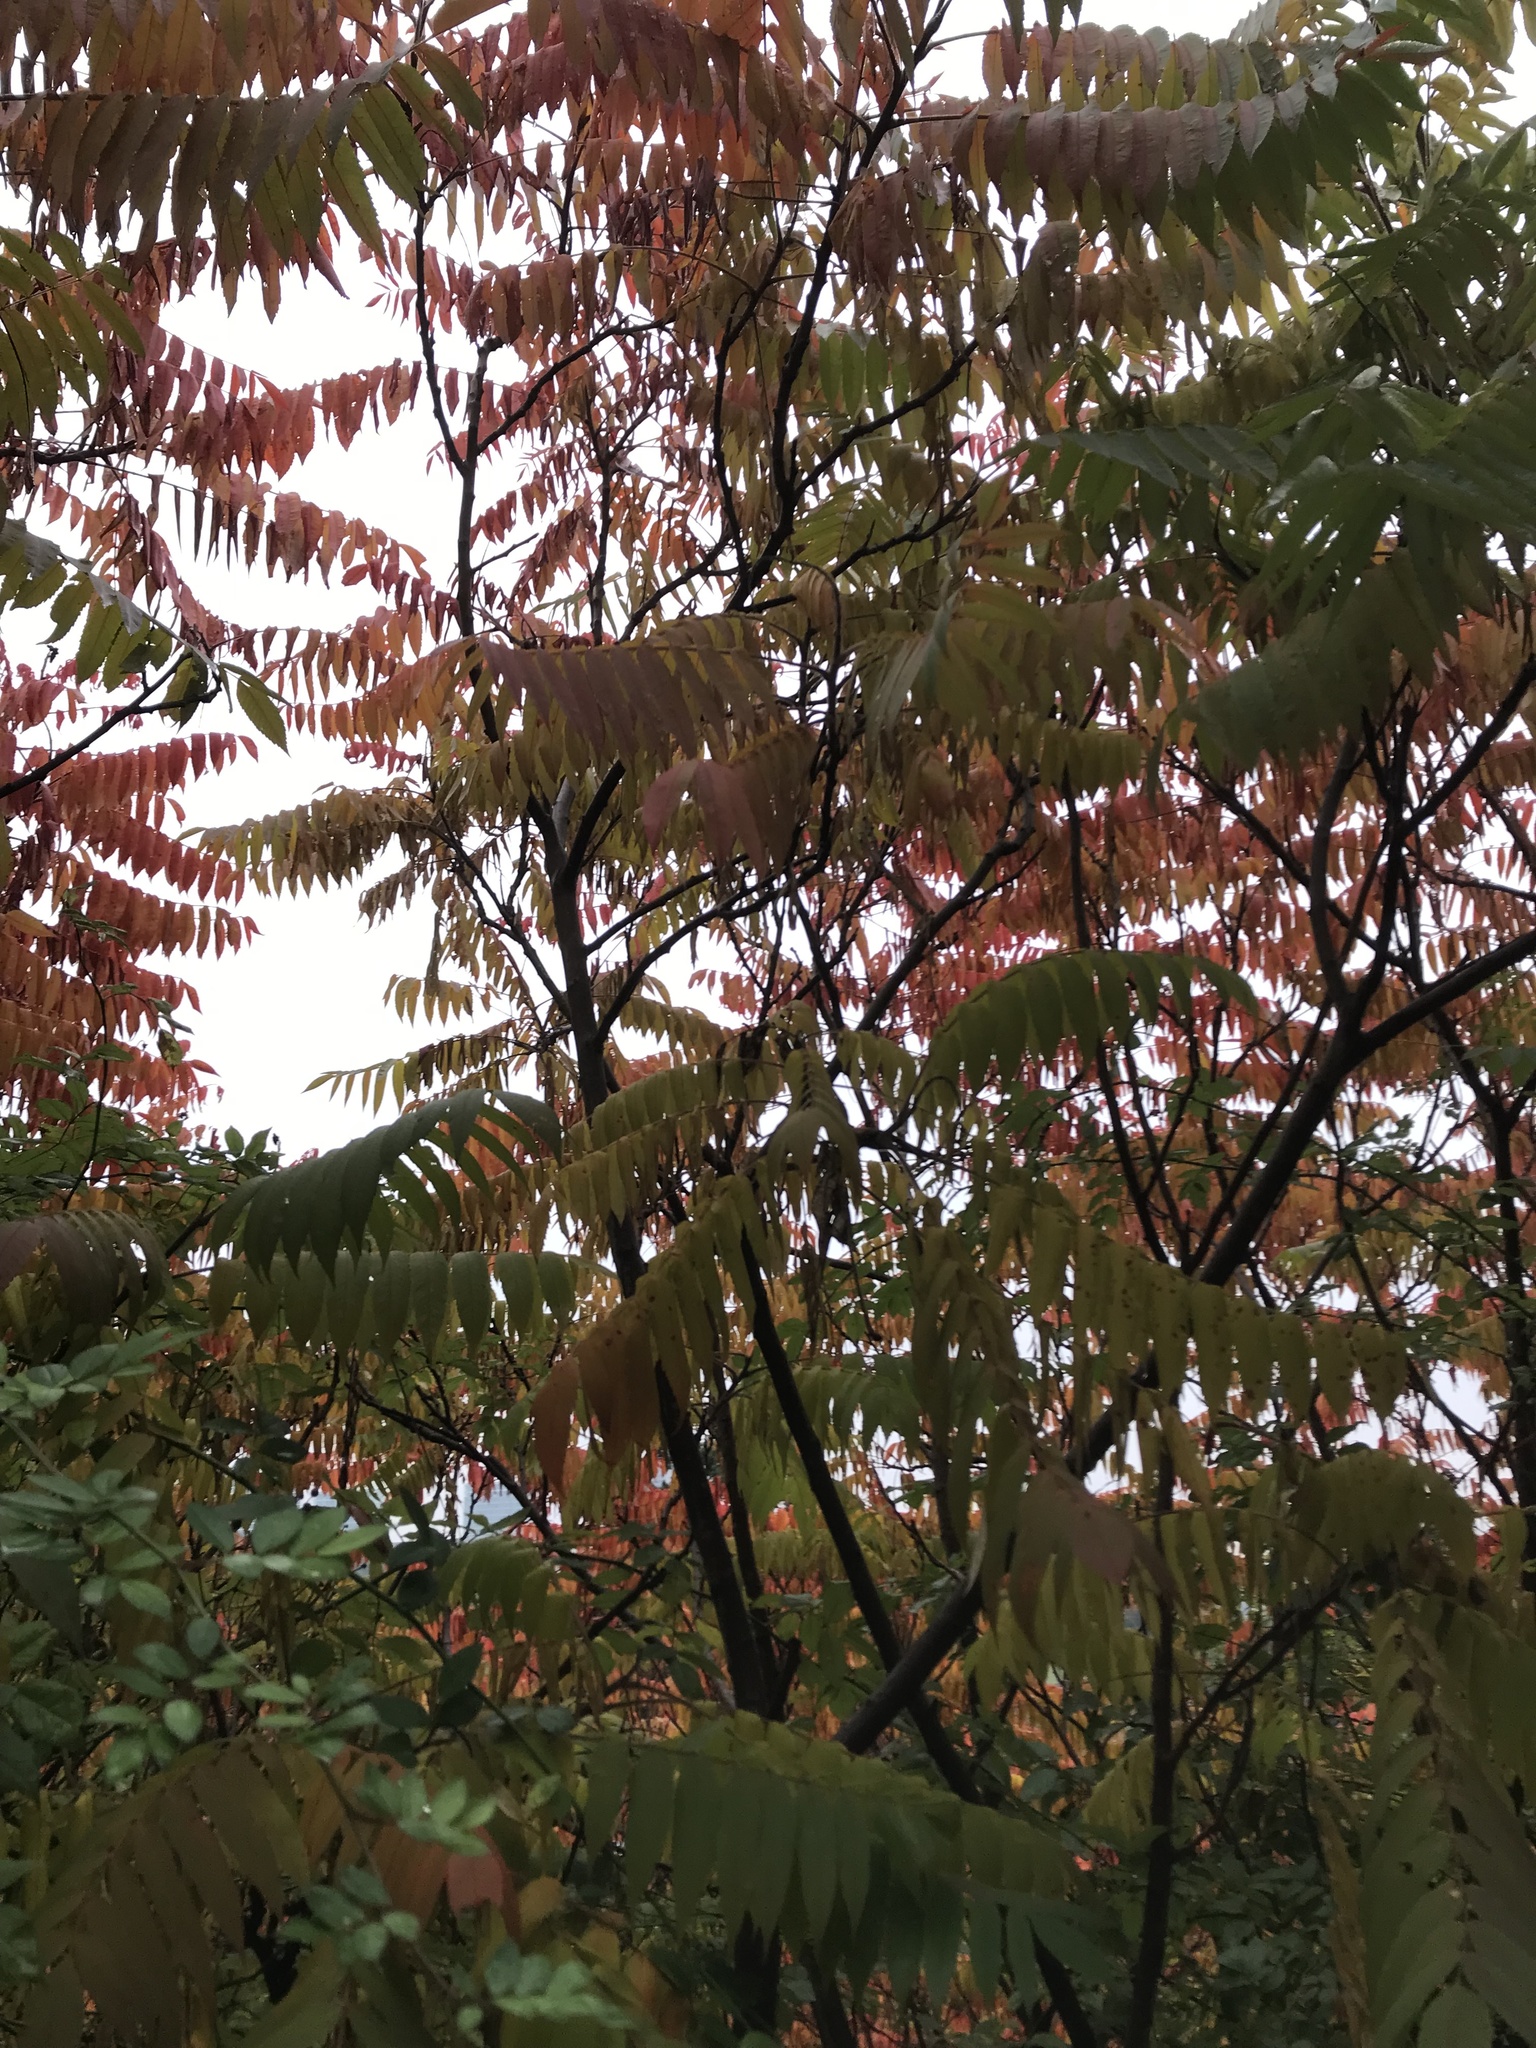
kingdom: Plantae
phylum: Tracheophyta
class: Magnoliopsida
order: Sapindales
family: Anacardiaceae
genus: Rhus
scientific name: Rhus typhina
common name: Staghorn sumac
